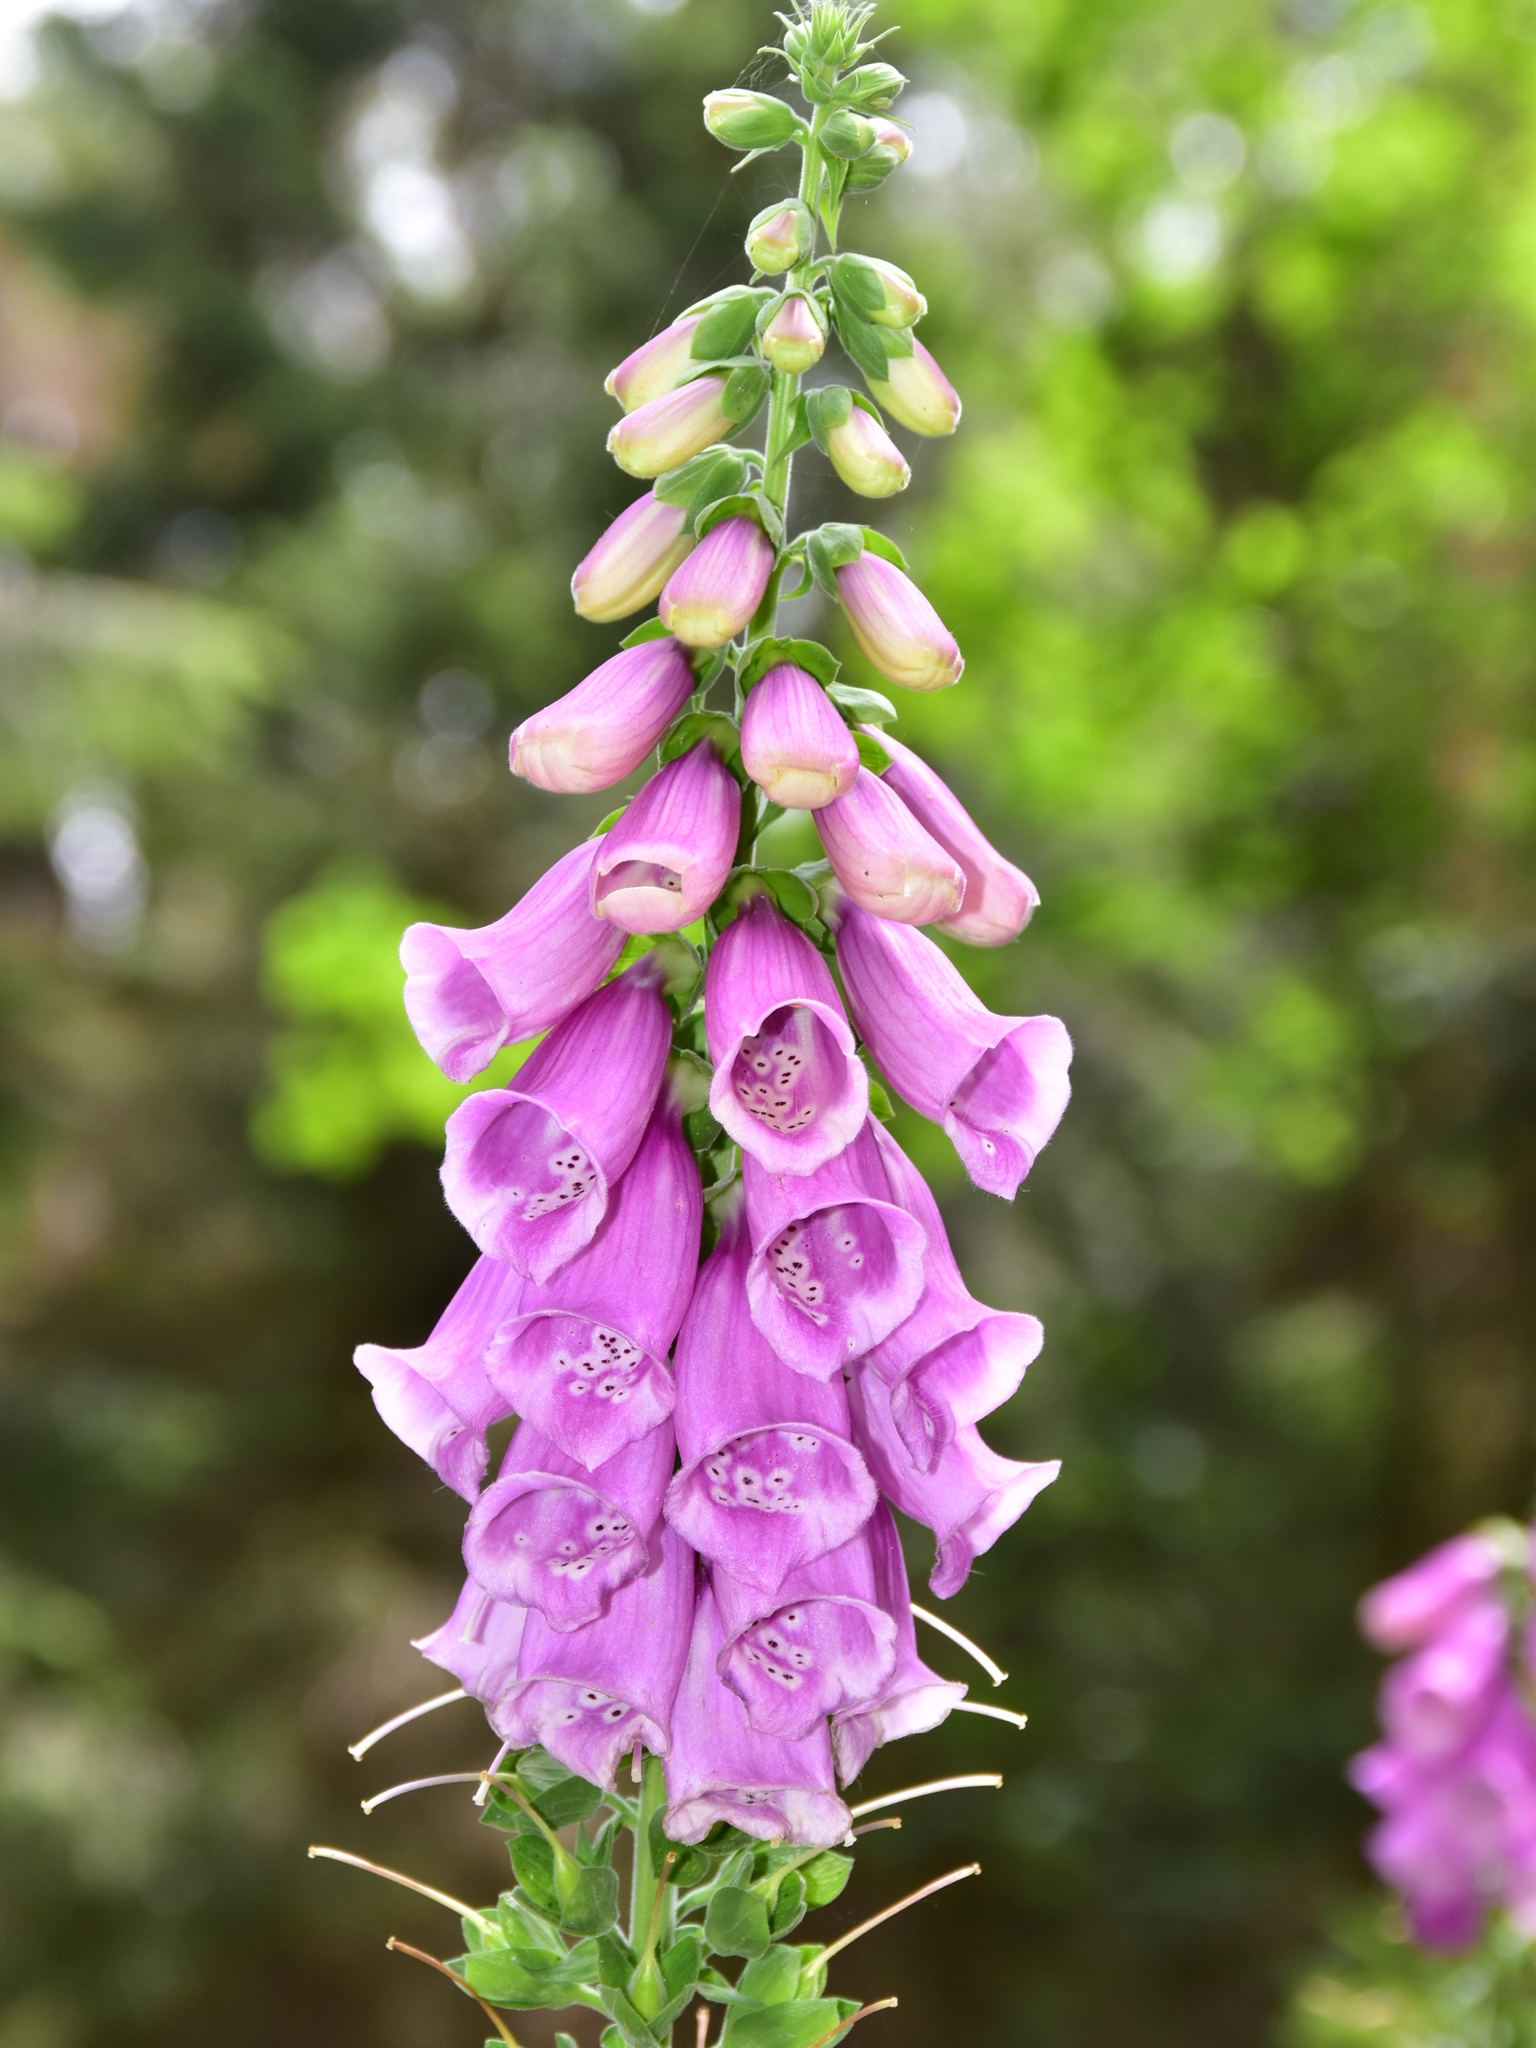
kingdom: Plantae
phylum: Tracheophyta
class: Magnoliopsida
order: Lamiales
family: Plantaginaceae
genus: Digitalis
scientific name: Digitalis purpurea
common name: Foxglove
